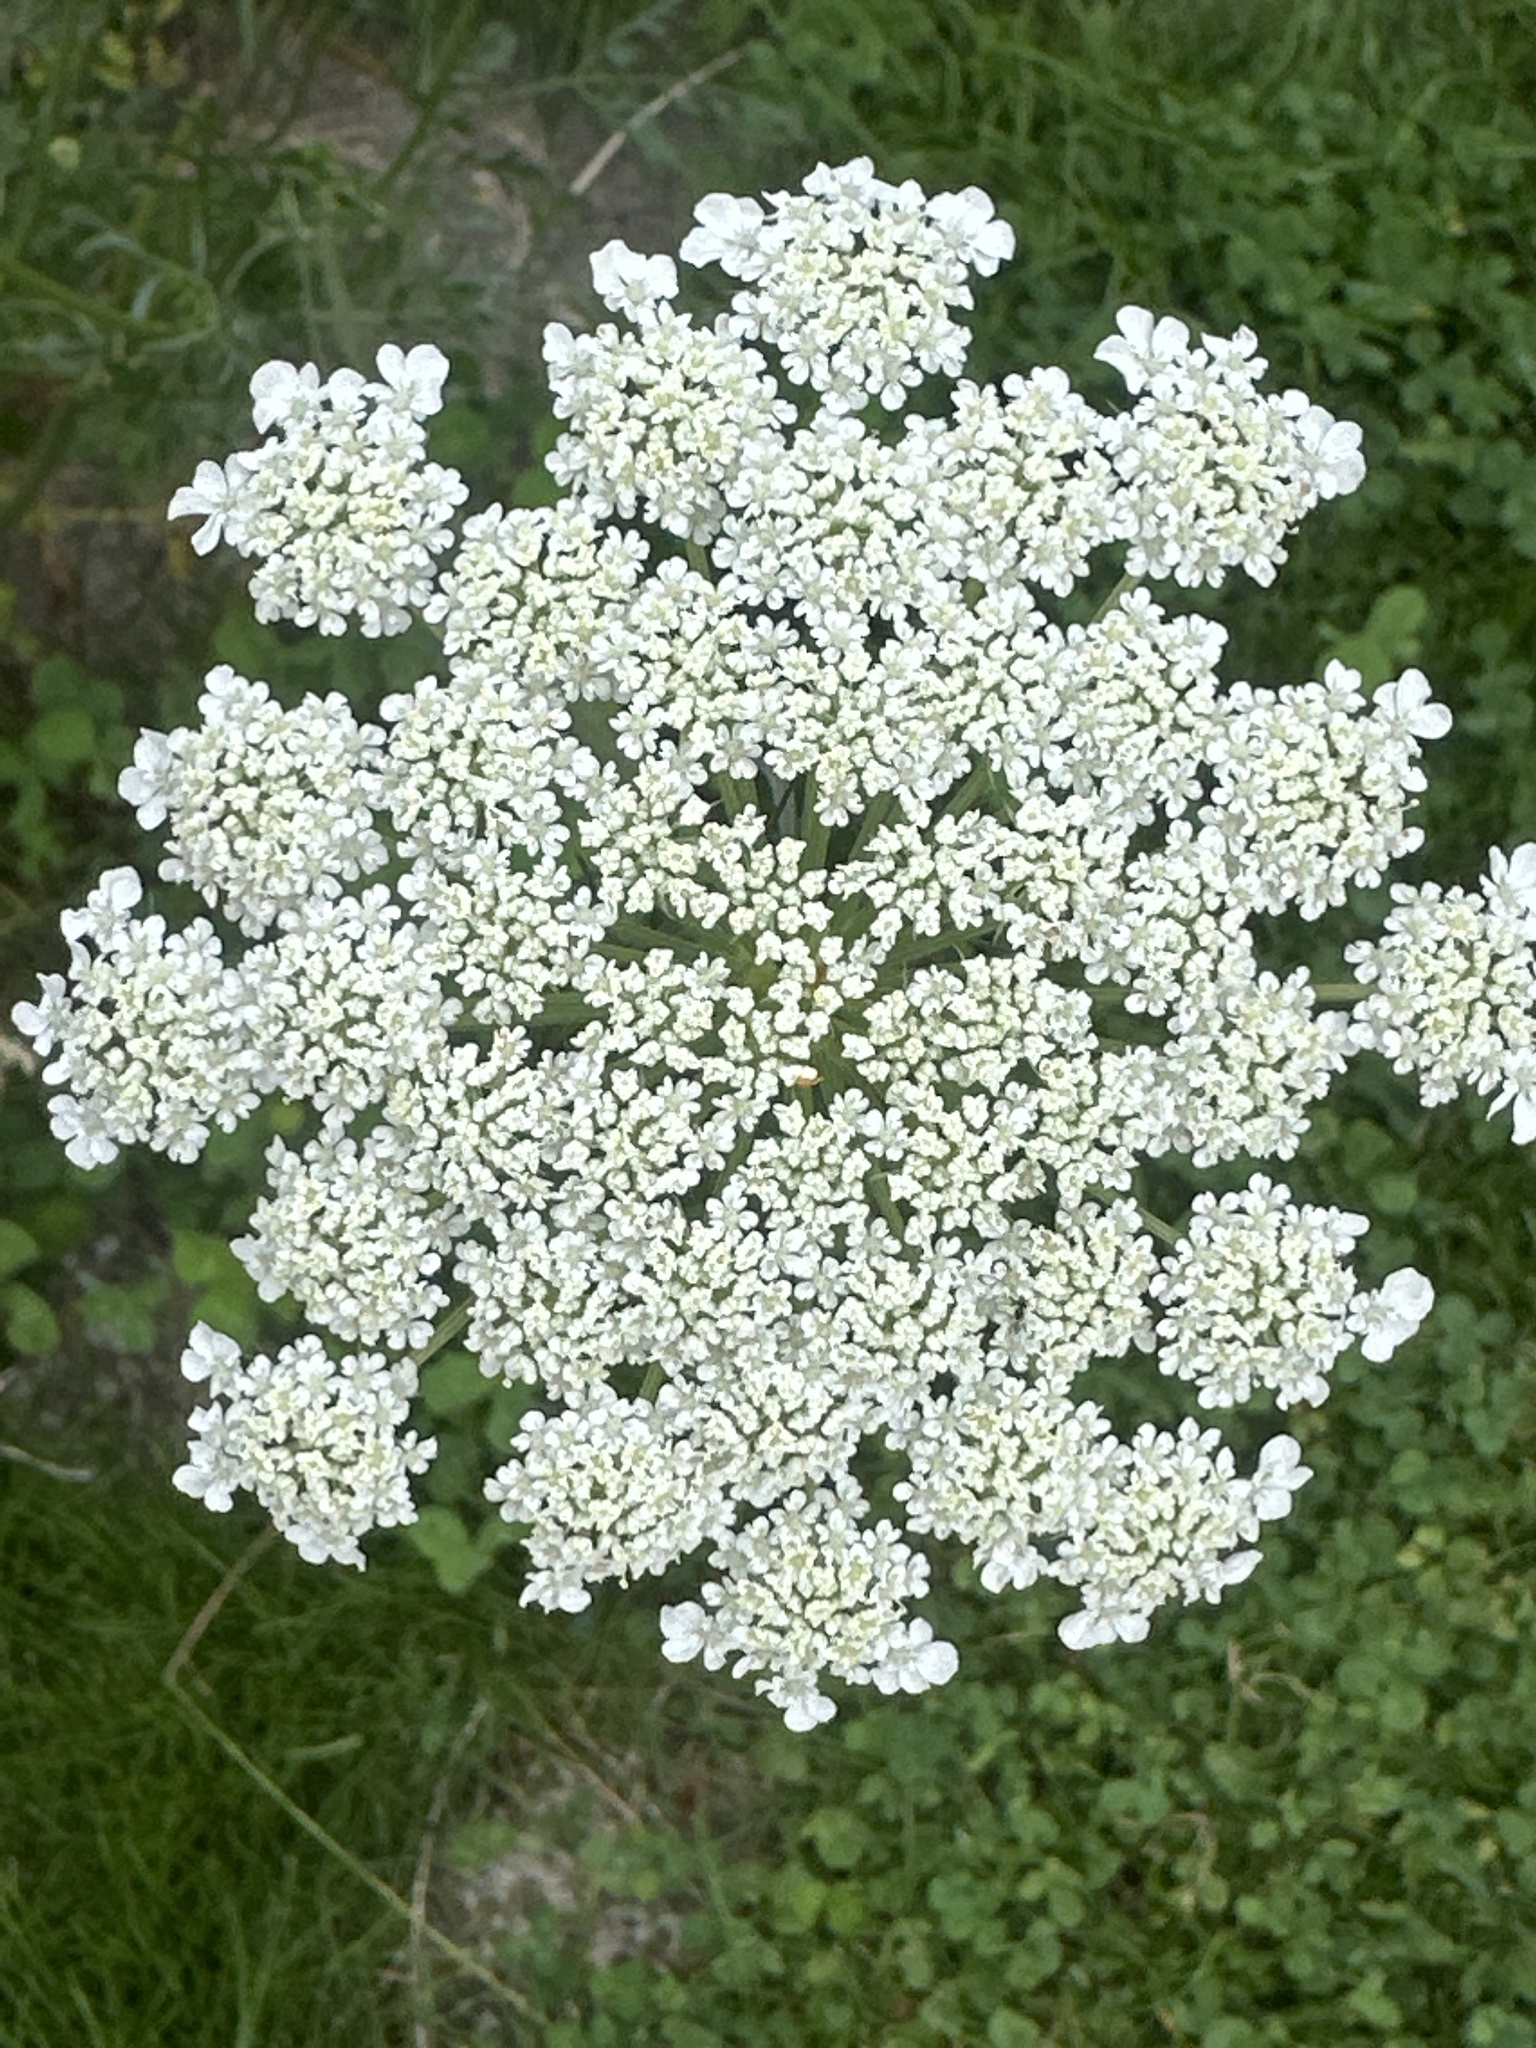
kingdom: Plantae
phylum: Tracheophyta
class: Magnoliopsida
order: Apiales
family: Apiaceae
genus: Daucus
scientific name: Daucus carota
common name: Wild carrot
